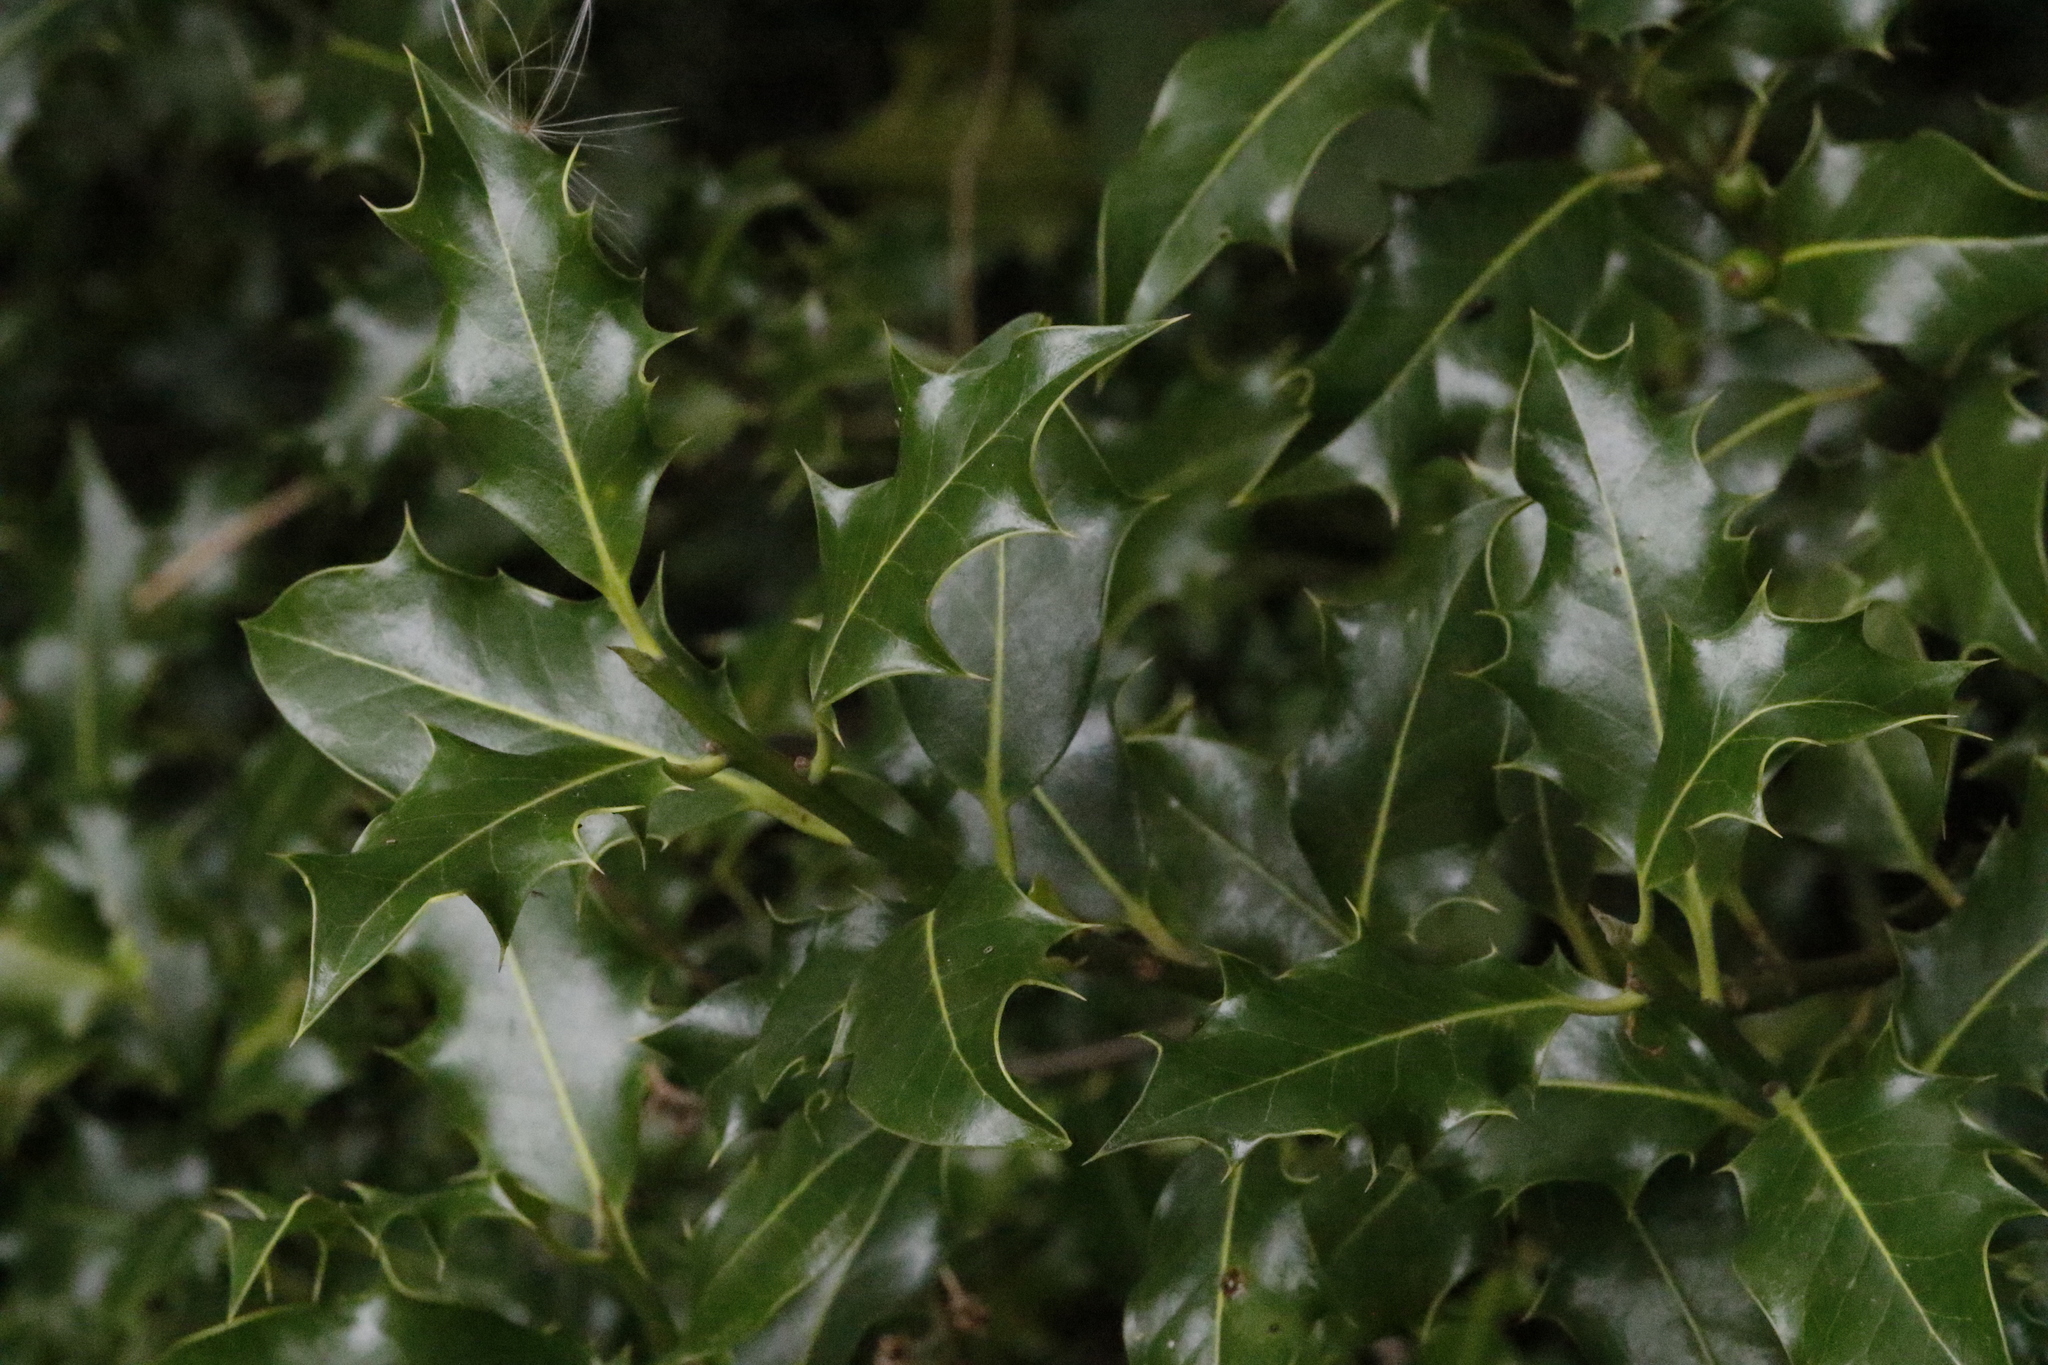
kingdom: Plantae
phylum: Tracheophyta
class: Magnoliopsida
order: Aquifoliales
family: Aquifoliaceae
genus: Ilex
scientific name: Ilex aquifolium
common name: English holly
